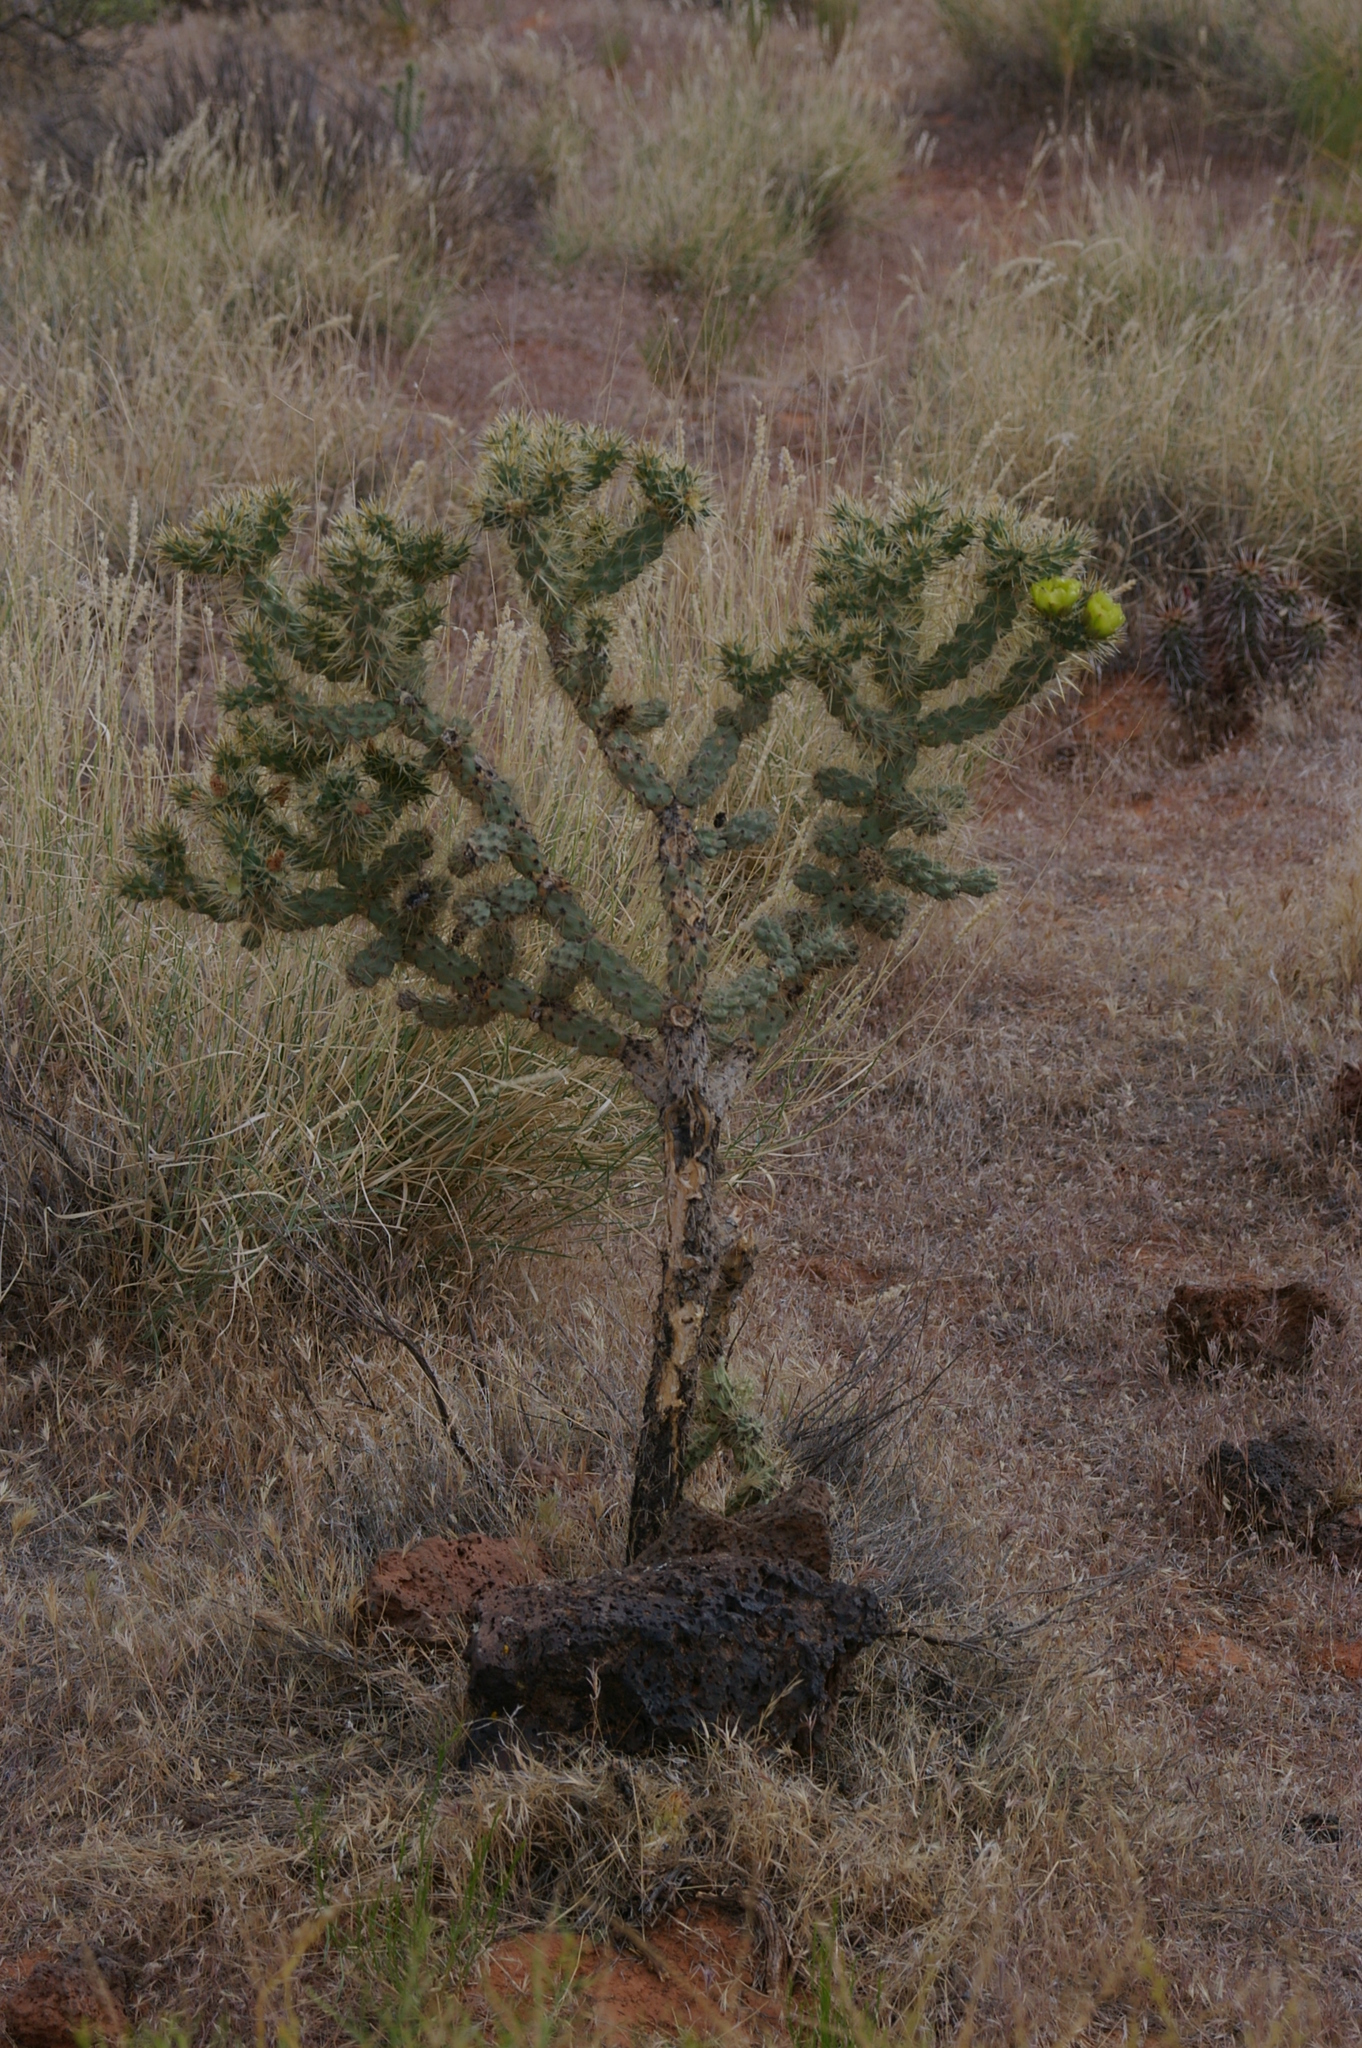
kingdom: Plantae
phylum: Tracheophyta
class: Magnoliopsida
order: Caryophyllales
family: Cactaceae
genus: Cylindropuntia
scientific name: Cylindropuntia whipplei
